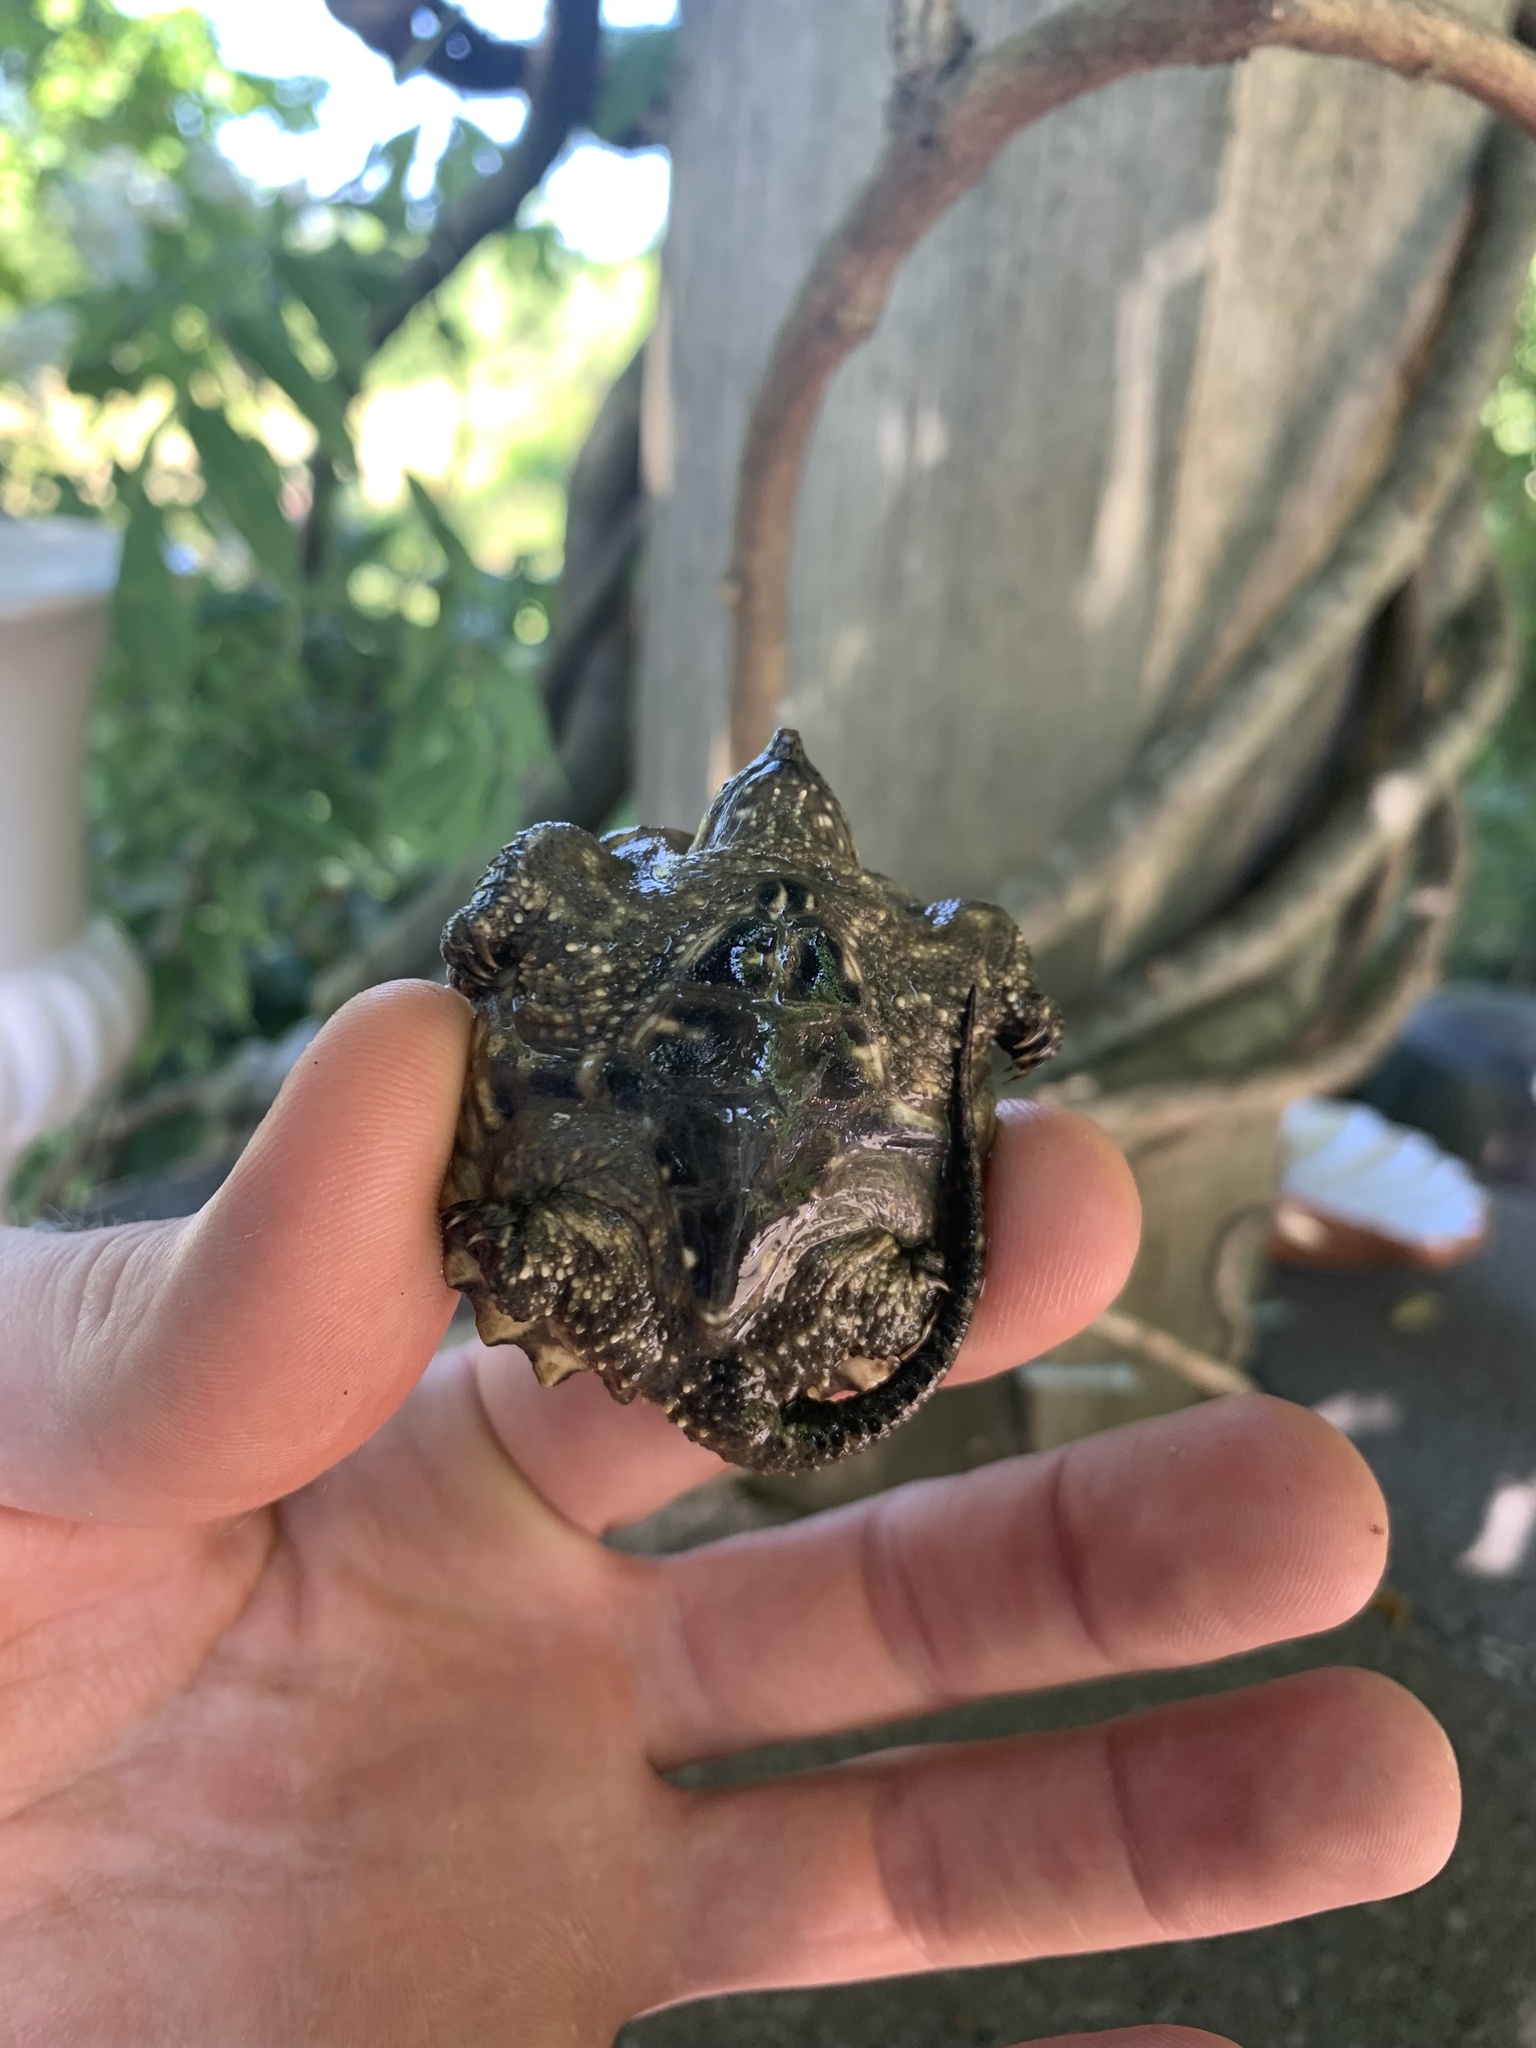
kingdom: Animalia
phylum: Chordata
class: Testudines
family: Chelydridae
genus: Chelydra
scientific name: Chelydra serpentina
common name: Common snapping turtle
